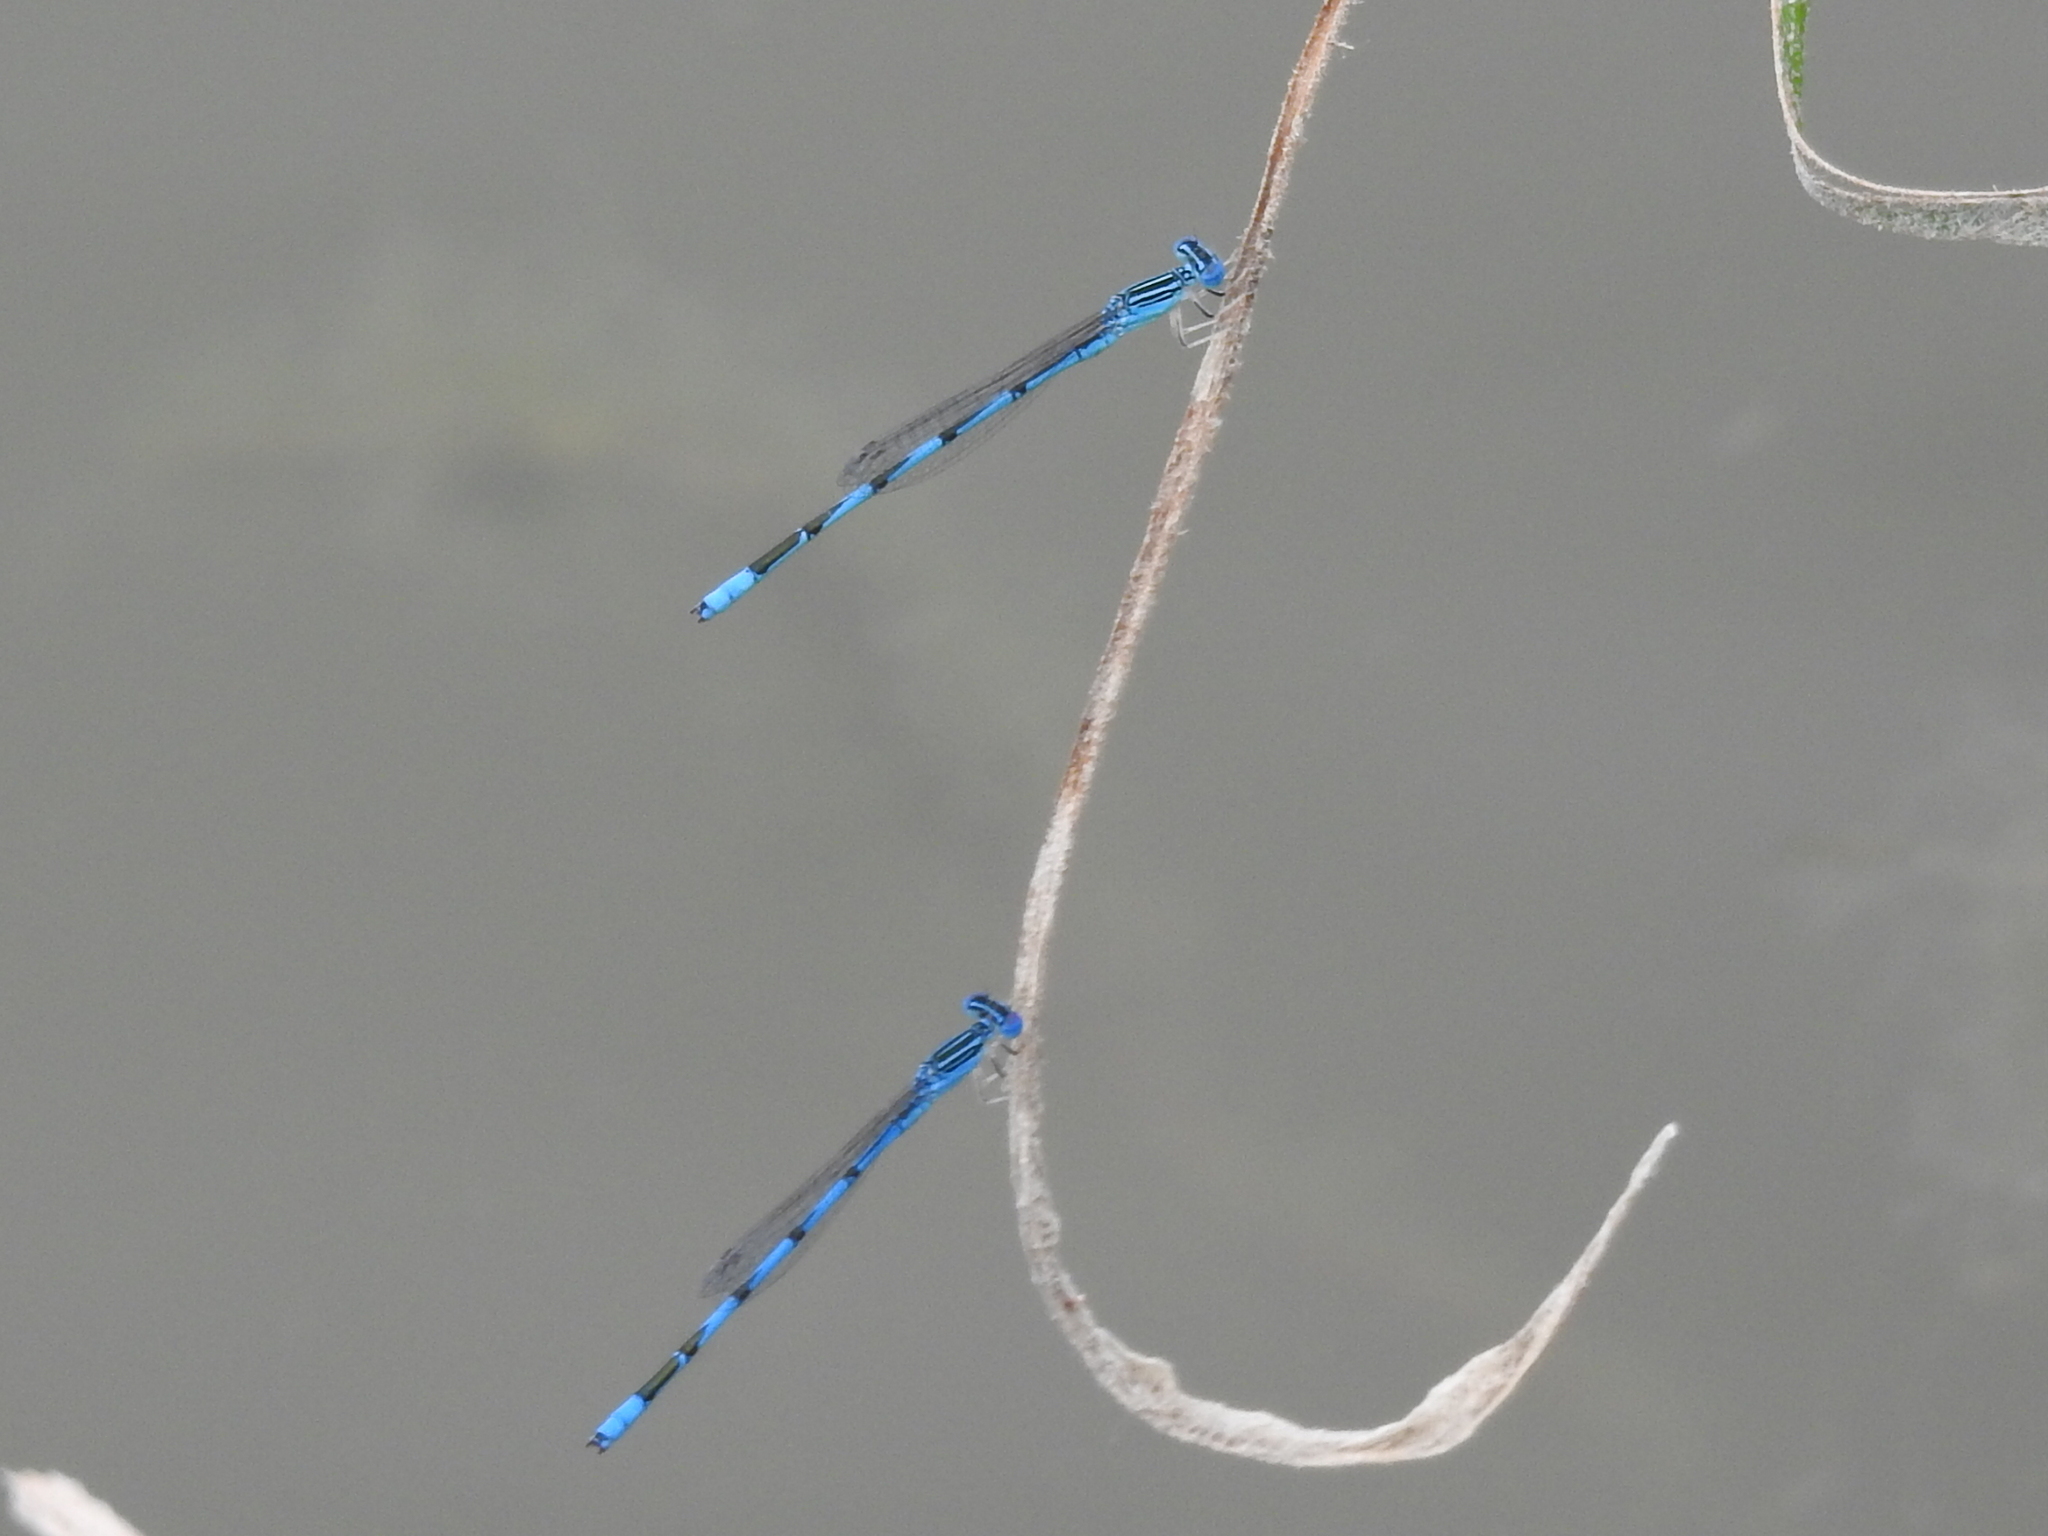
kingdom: Animalia
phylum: Arthropoda
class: Insecta
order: Odonata
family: Coenagrionidae
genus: Enallagma
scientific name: Enallagma basidens
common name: Double-striped bluet
